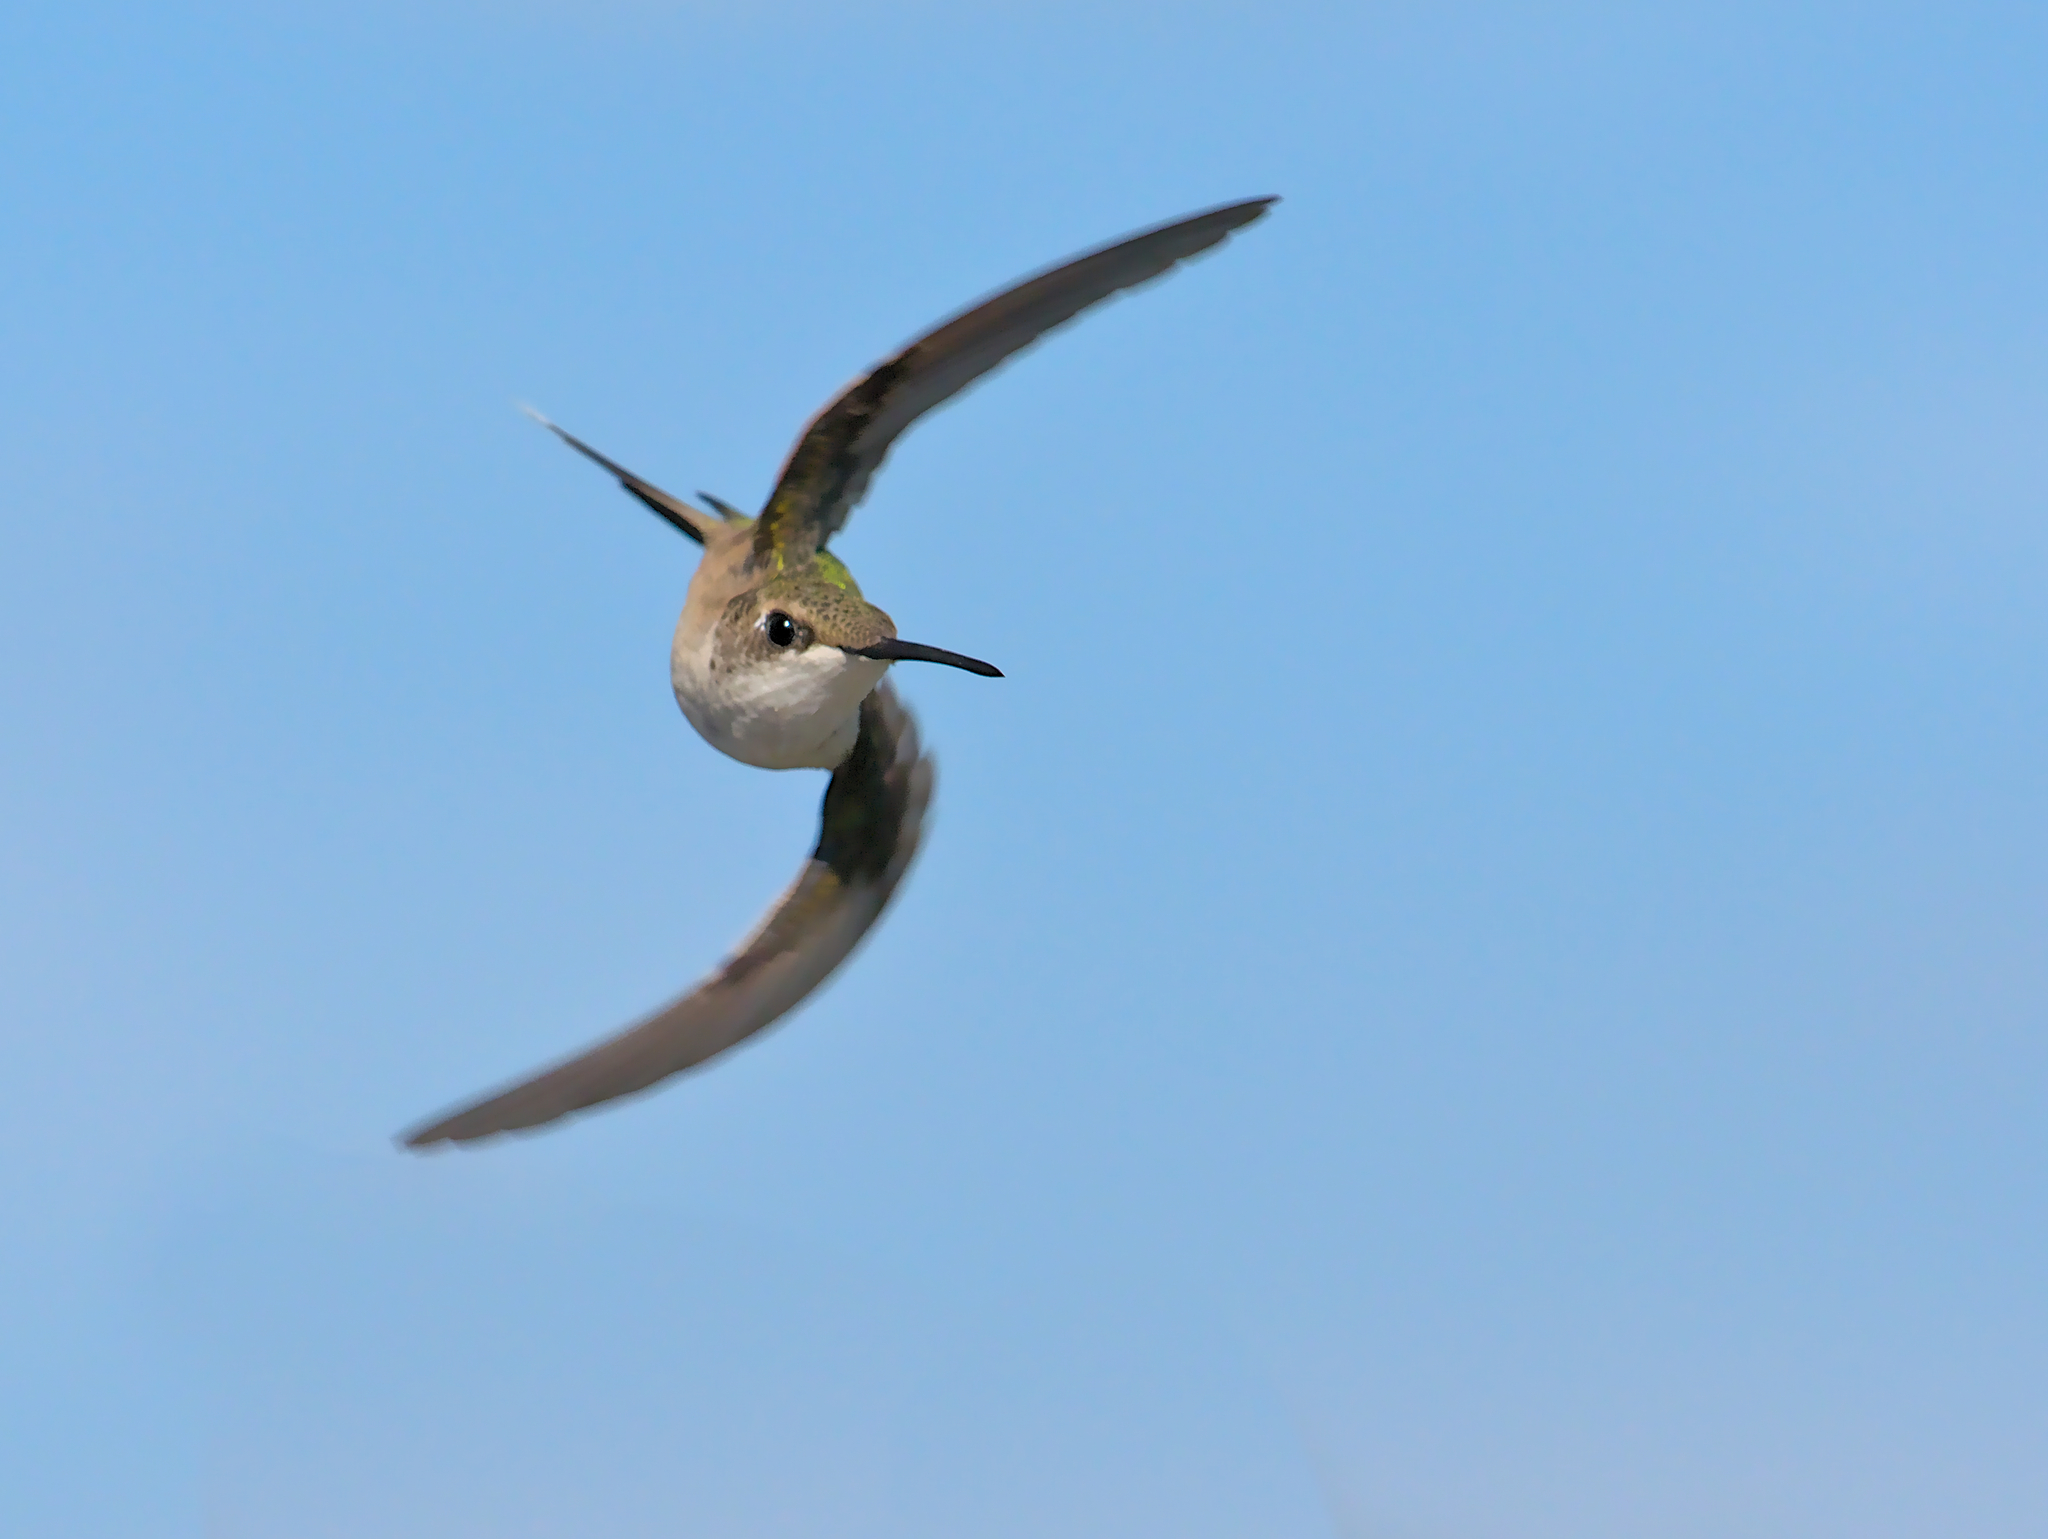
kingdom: Animalia
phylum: Chordata
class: Aves
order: Apodiformes
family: Trochilidae
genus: Archilochus
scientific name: Archilochus colubris
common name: Ruby-throated hummingbird
